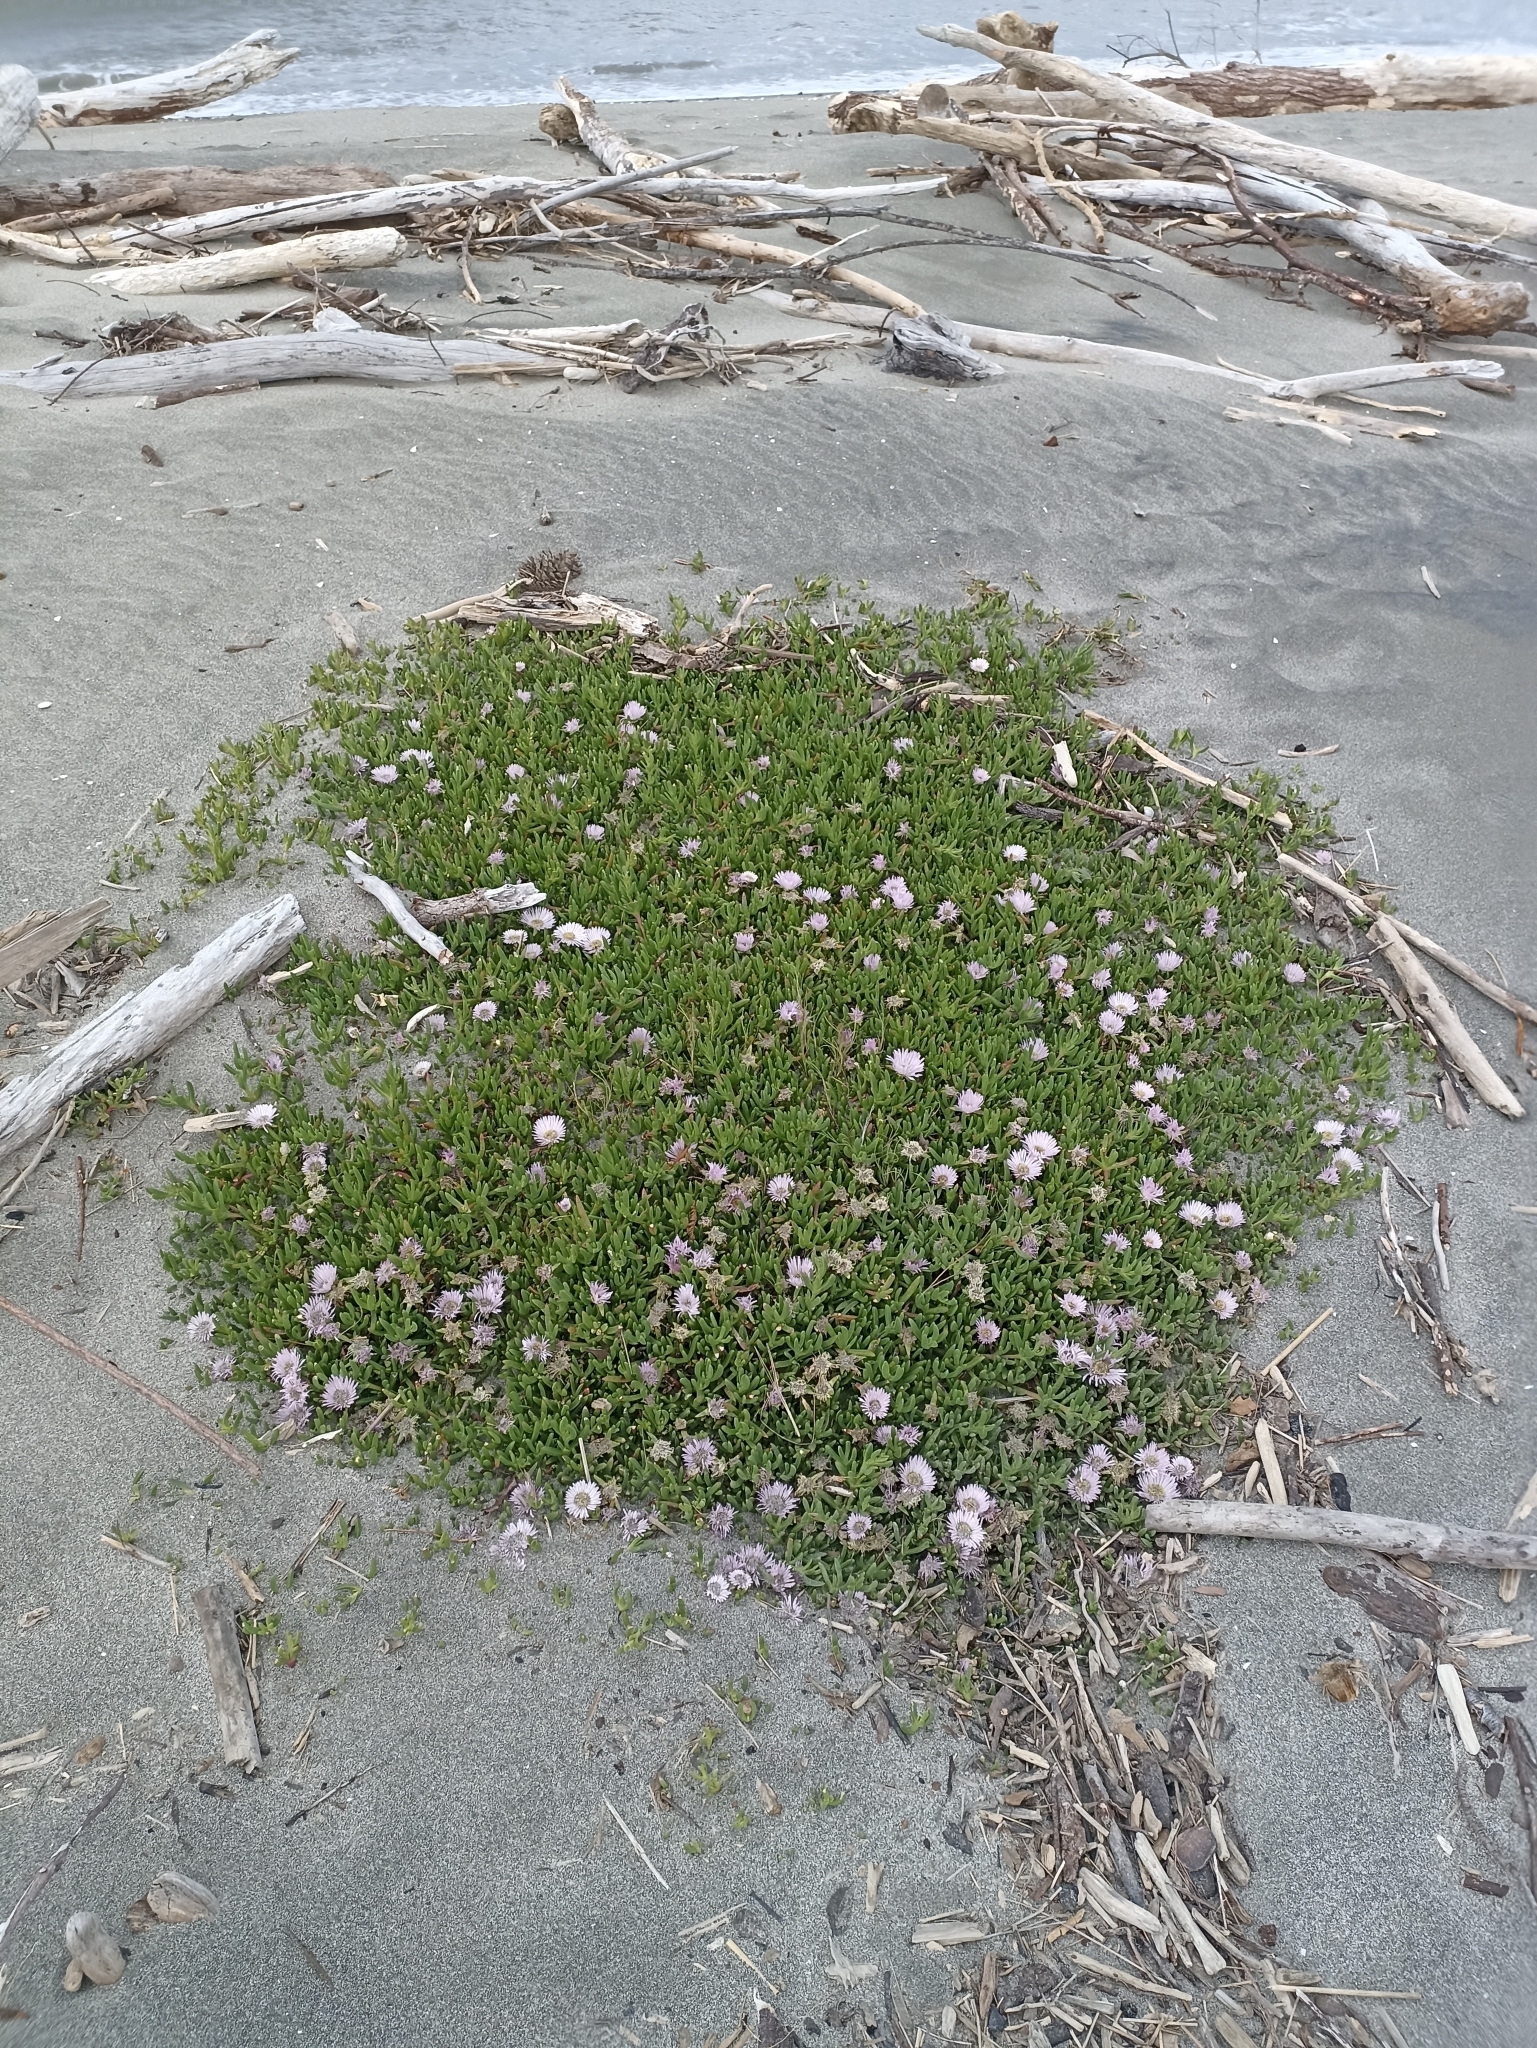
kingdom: Plantae
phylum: Tracheophyta
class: Magnoliopsida
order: Caryophyllales
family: Aizoaceae
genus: Disphyma
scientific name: Disphyma australe
